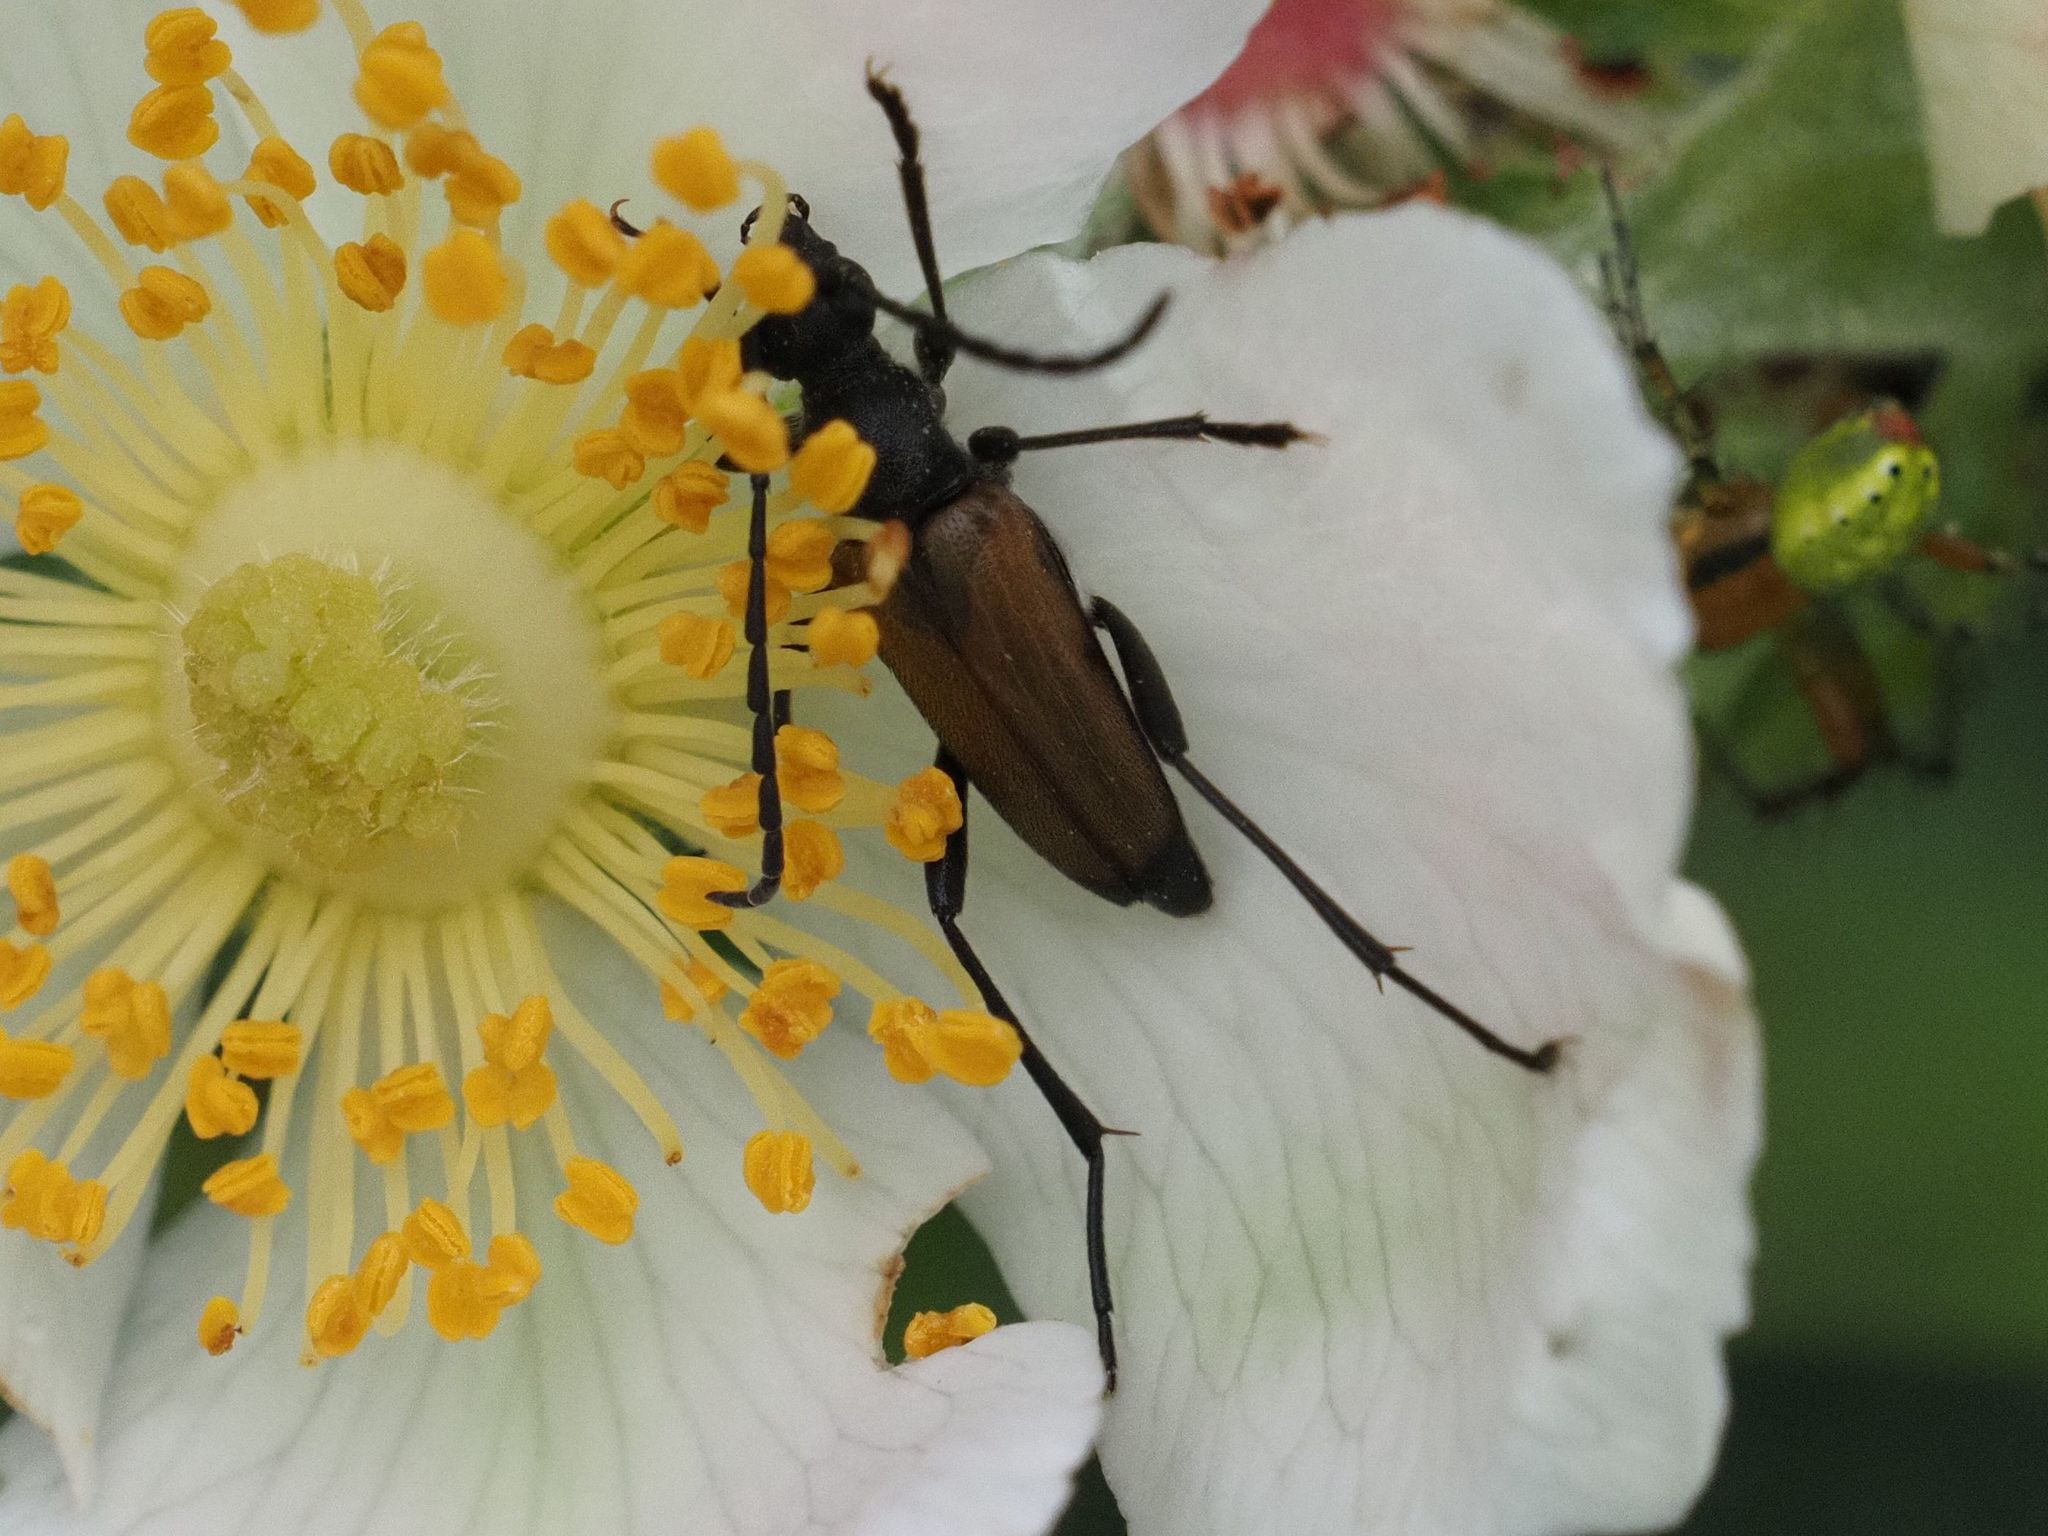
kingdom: Animalia
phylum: Arthropoda
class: Insecta
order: Coleoptera
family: Cerambycidae
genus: Anastrangalia
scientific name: Anastrangalia sanguinolenta
